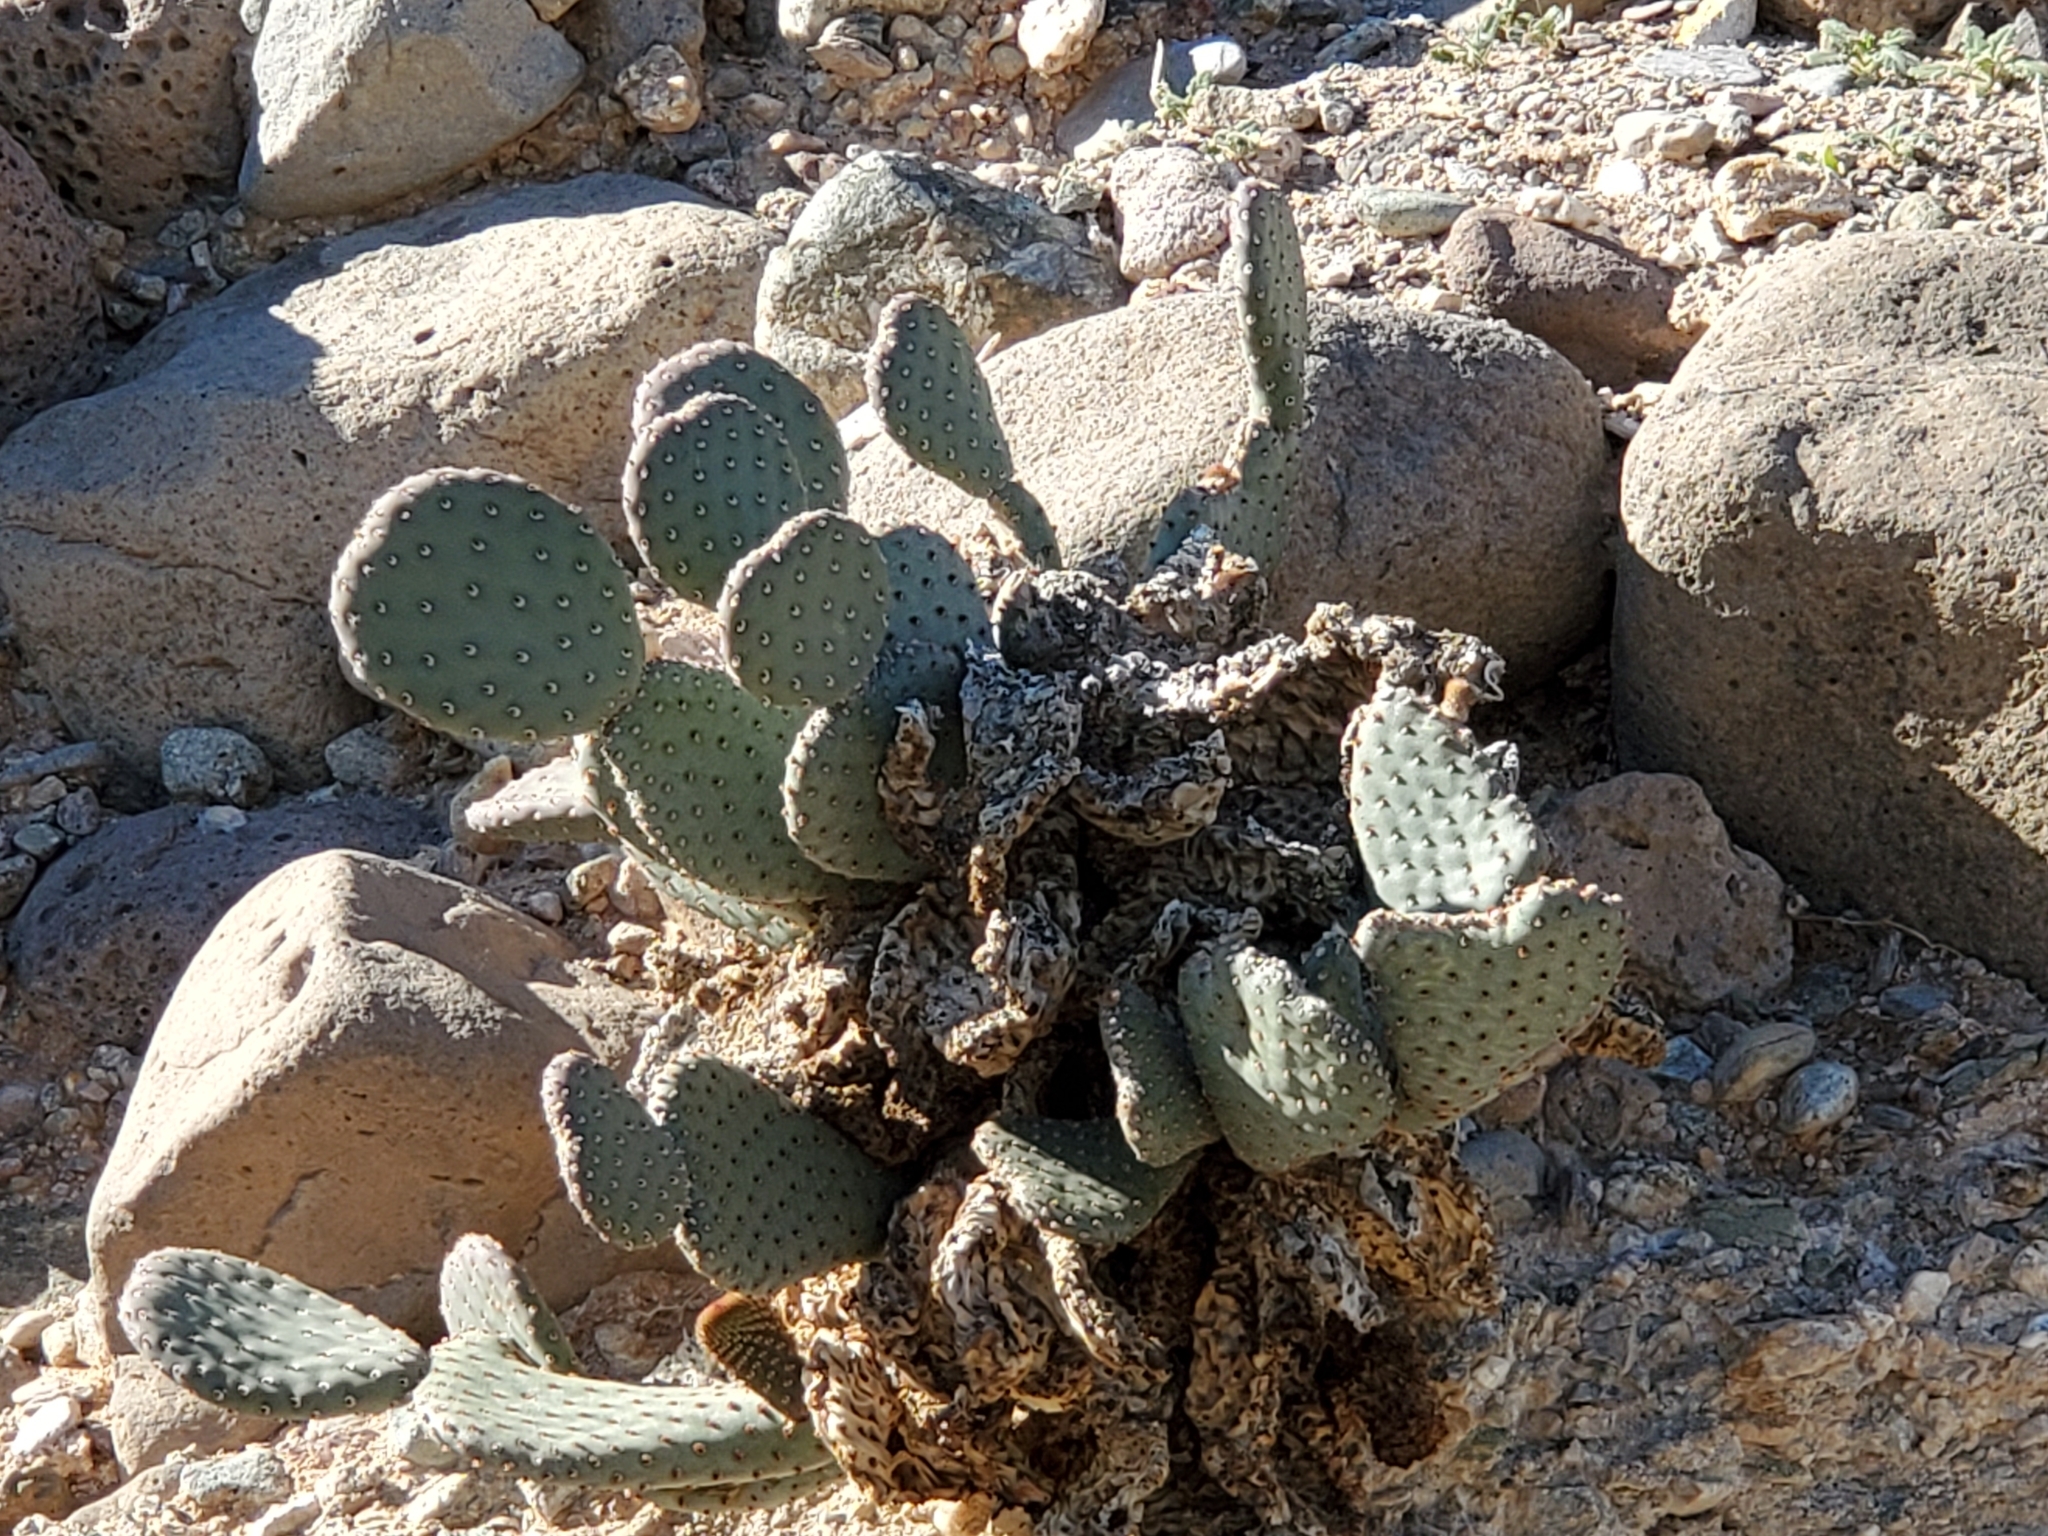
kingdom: Plantae
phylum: Tracheophyta
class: Magnoliopsida
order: Caryophyllales
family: Cactaceae
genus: Opuntia
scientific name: Opuntia basilaris
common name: Beavertail prickly-pear
